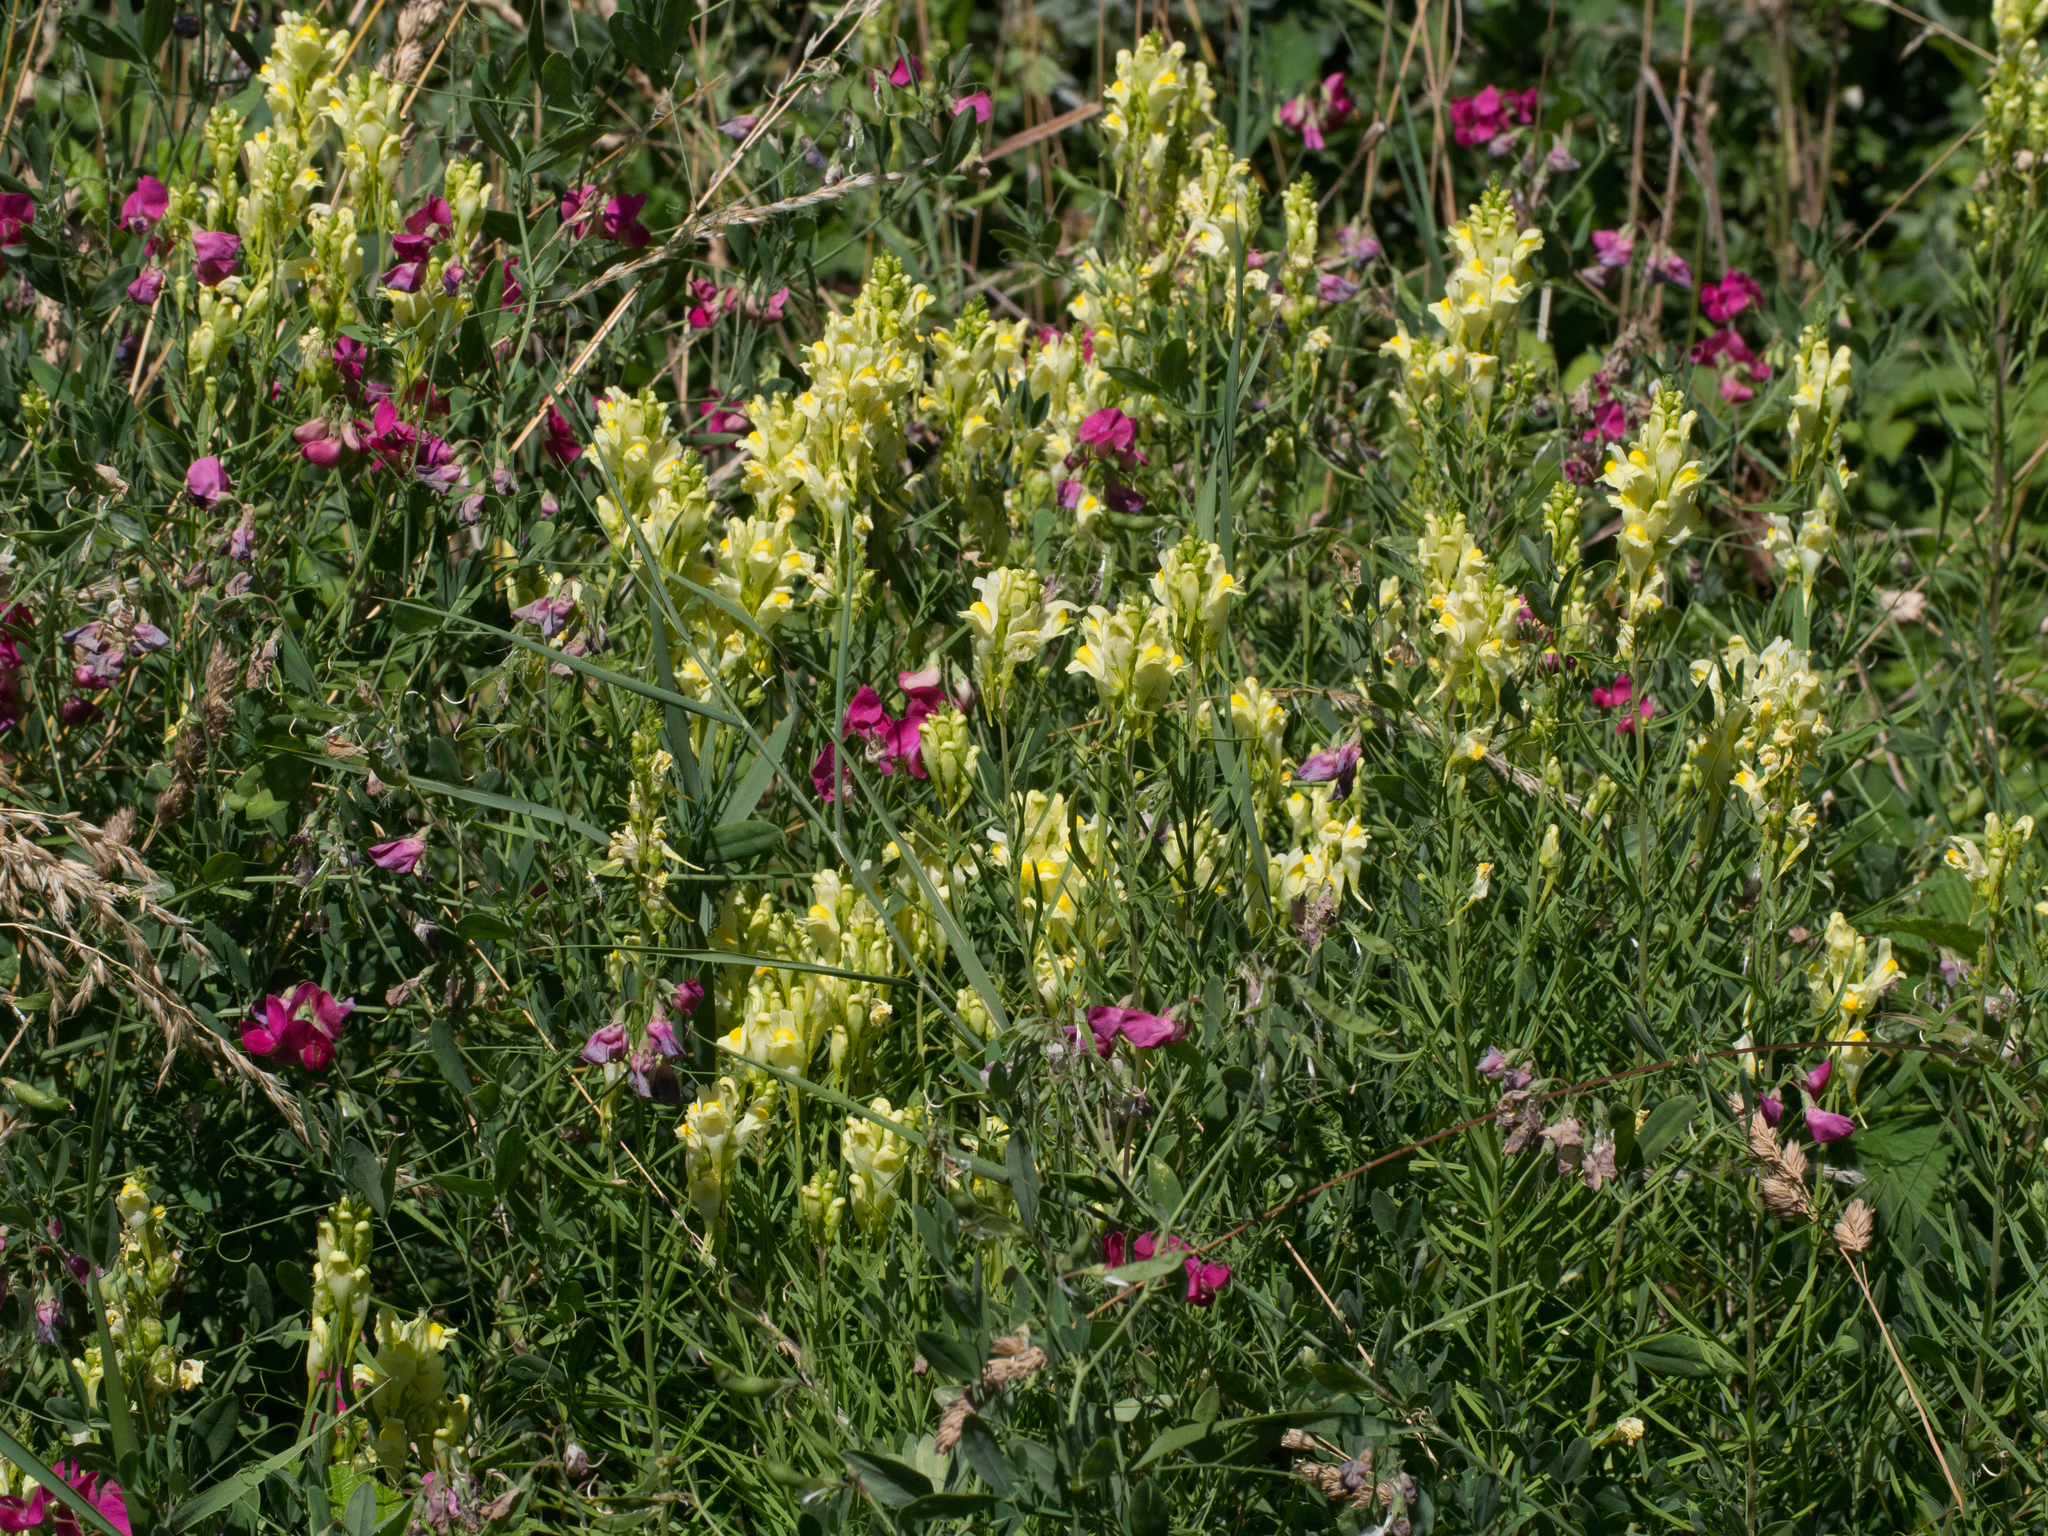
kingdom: Plantae
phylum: Tracheophyta
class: Magnoliopsida
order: Fabales
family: Fabaceae
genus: Lathyrus
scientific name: Lathyrus tuberosus
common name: Tuberous pea
